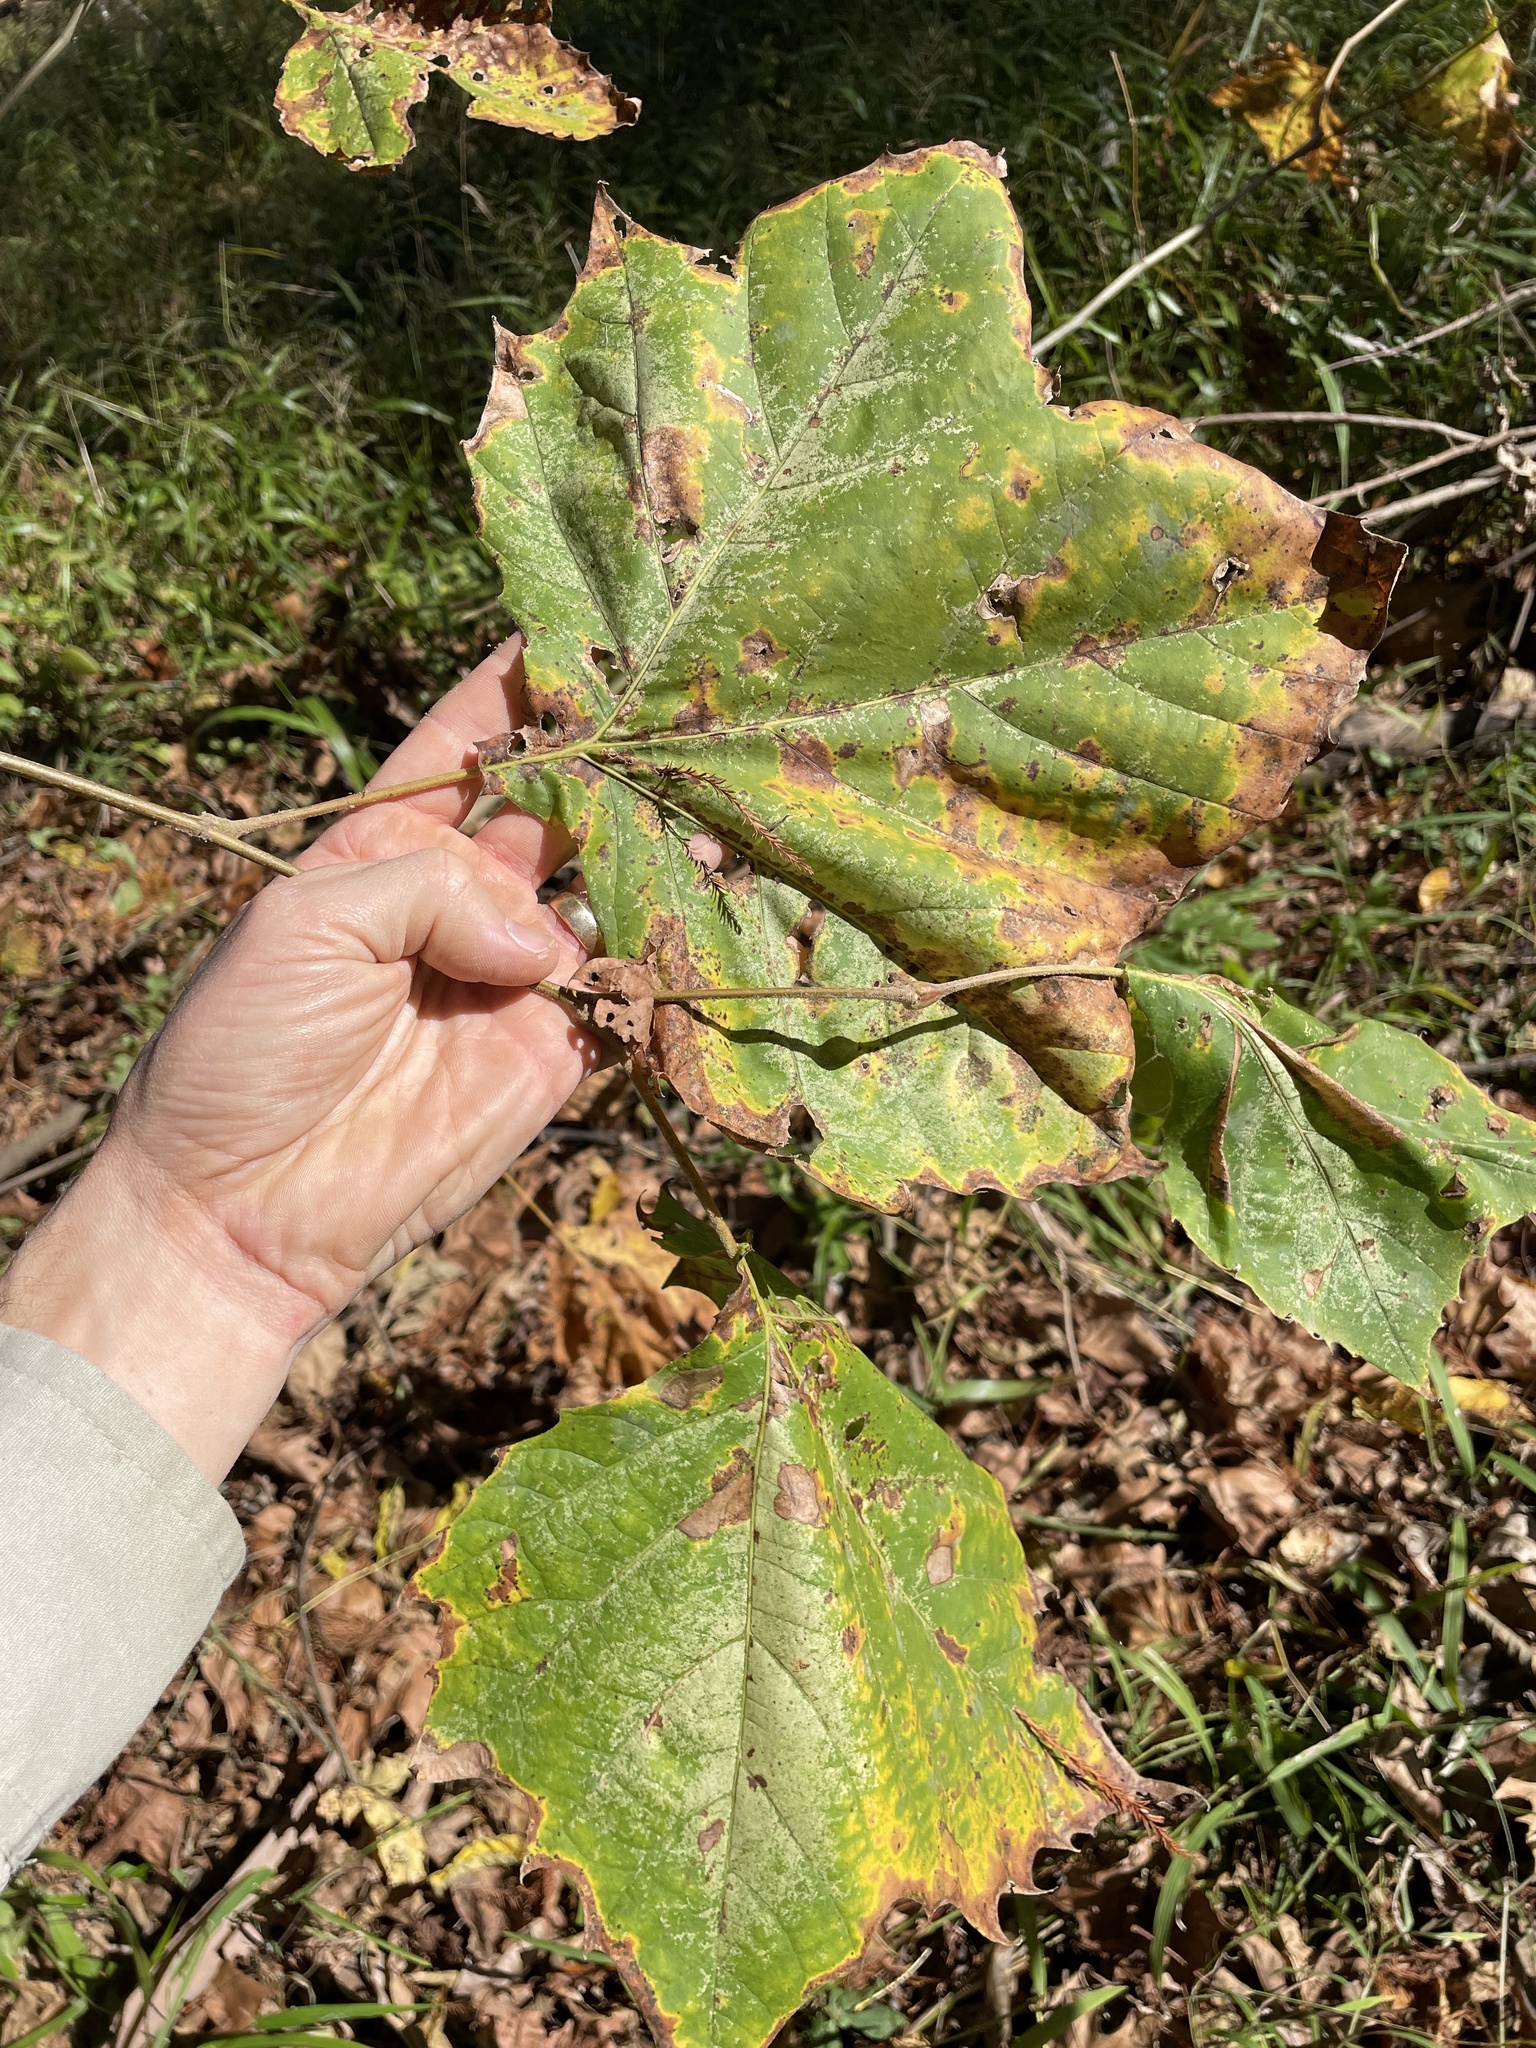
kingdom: Plantae
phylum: Tracheophyta
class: Magnoliopsida
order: Proteales
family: Platanaceae
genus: Platanus
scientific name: Platanus occidentalis
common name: American sycamore
